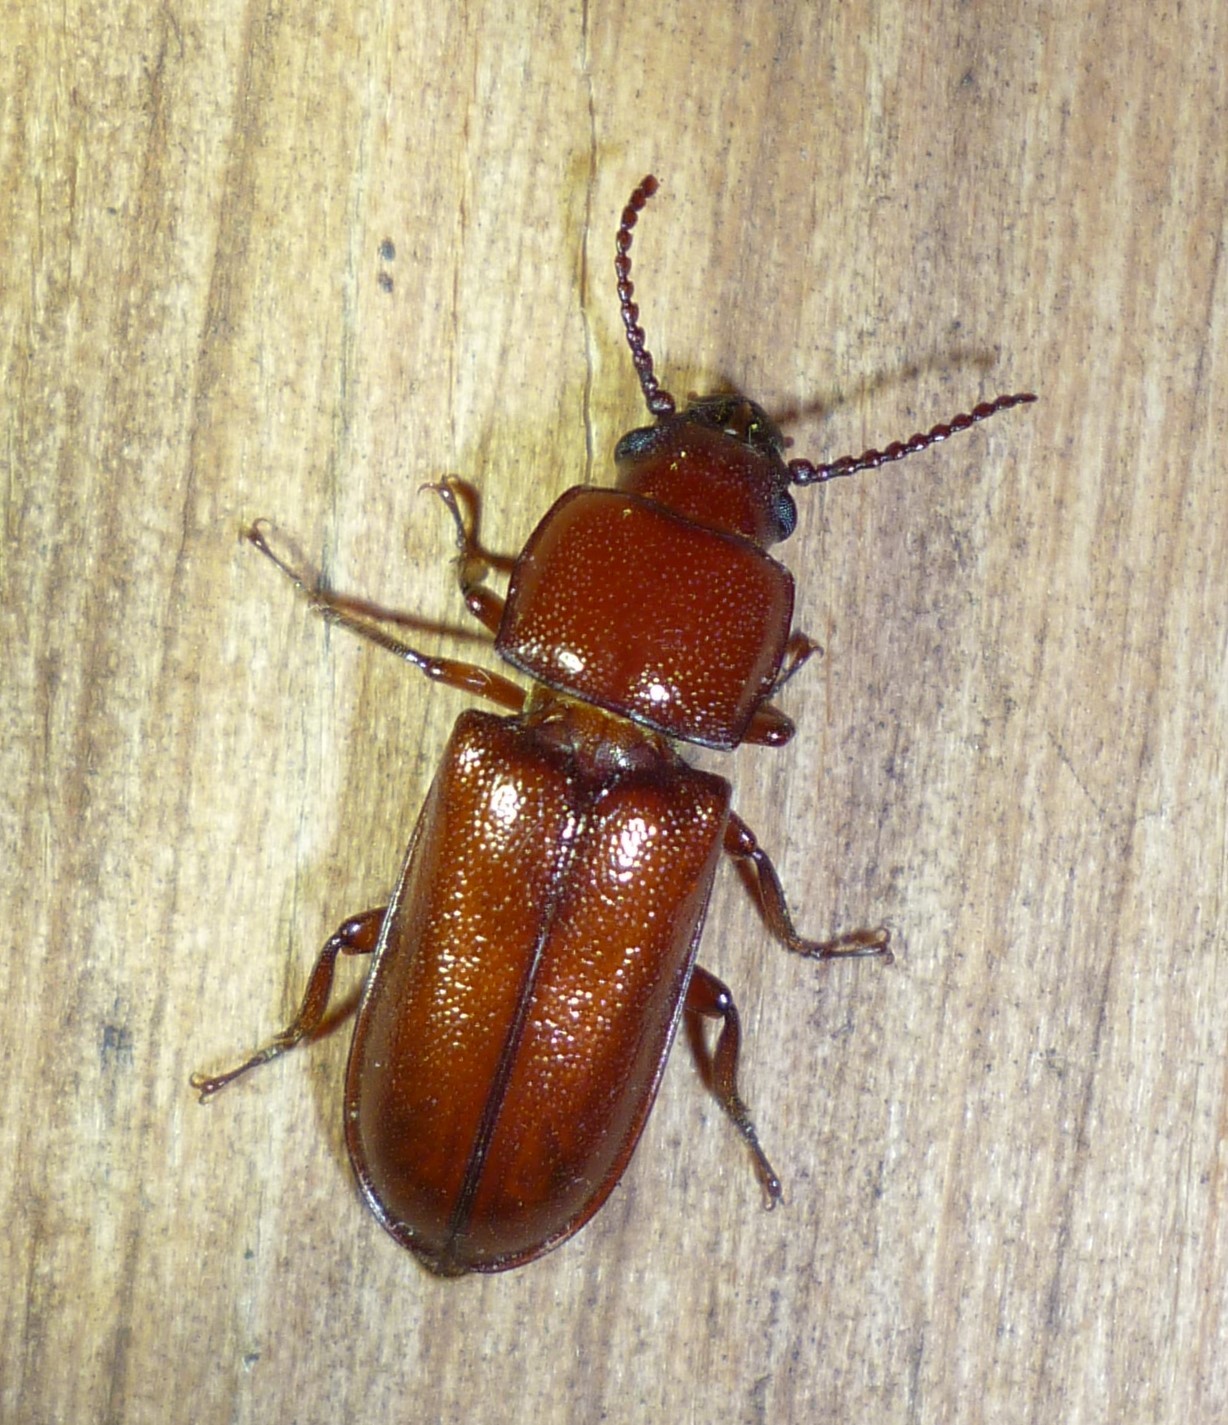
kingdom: Animalia
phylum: Arthropoda
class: Insecta
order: Coleoptera
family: Cerambycidae
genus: Neandra
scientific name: Neandra brunnea
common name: Pole borer
